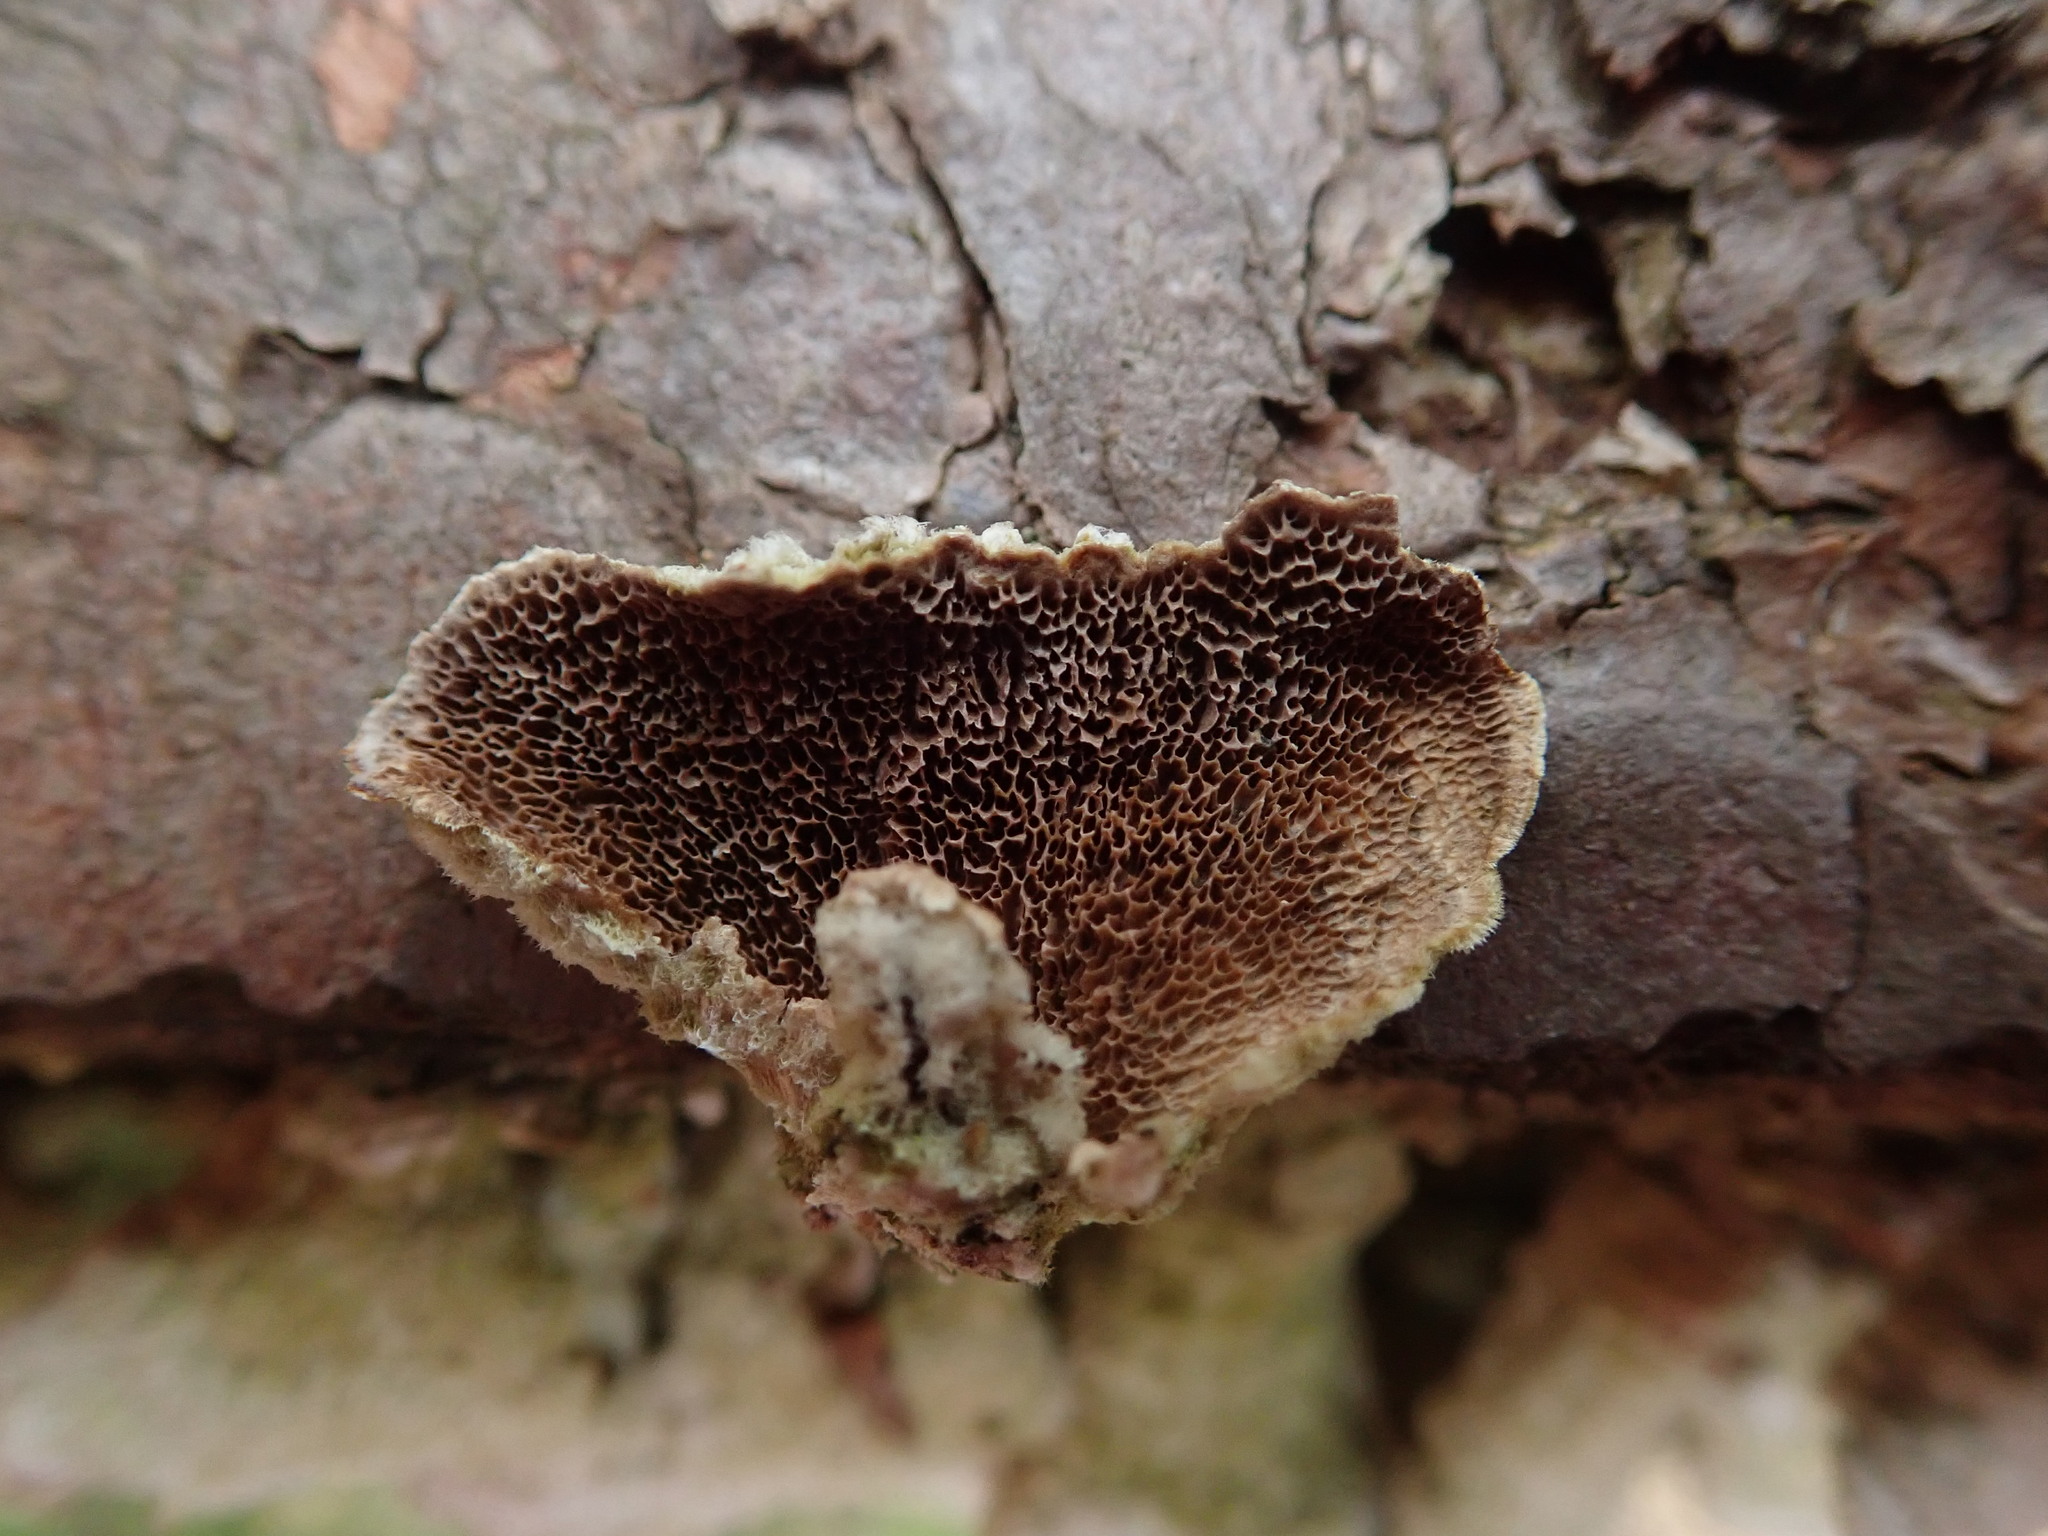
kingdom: Fungi
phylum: Basidiomycota
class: Agaricomycetes
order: Hymenochaetales
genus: Trichaptum
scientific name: Trichaptum abietinum
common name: Purplepore bracket
